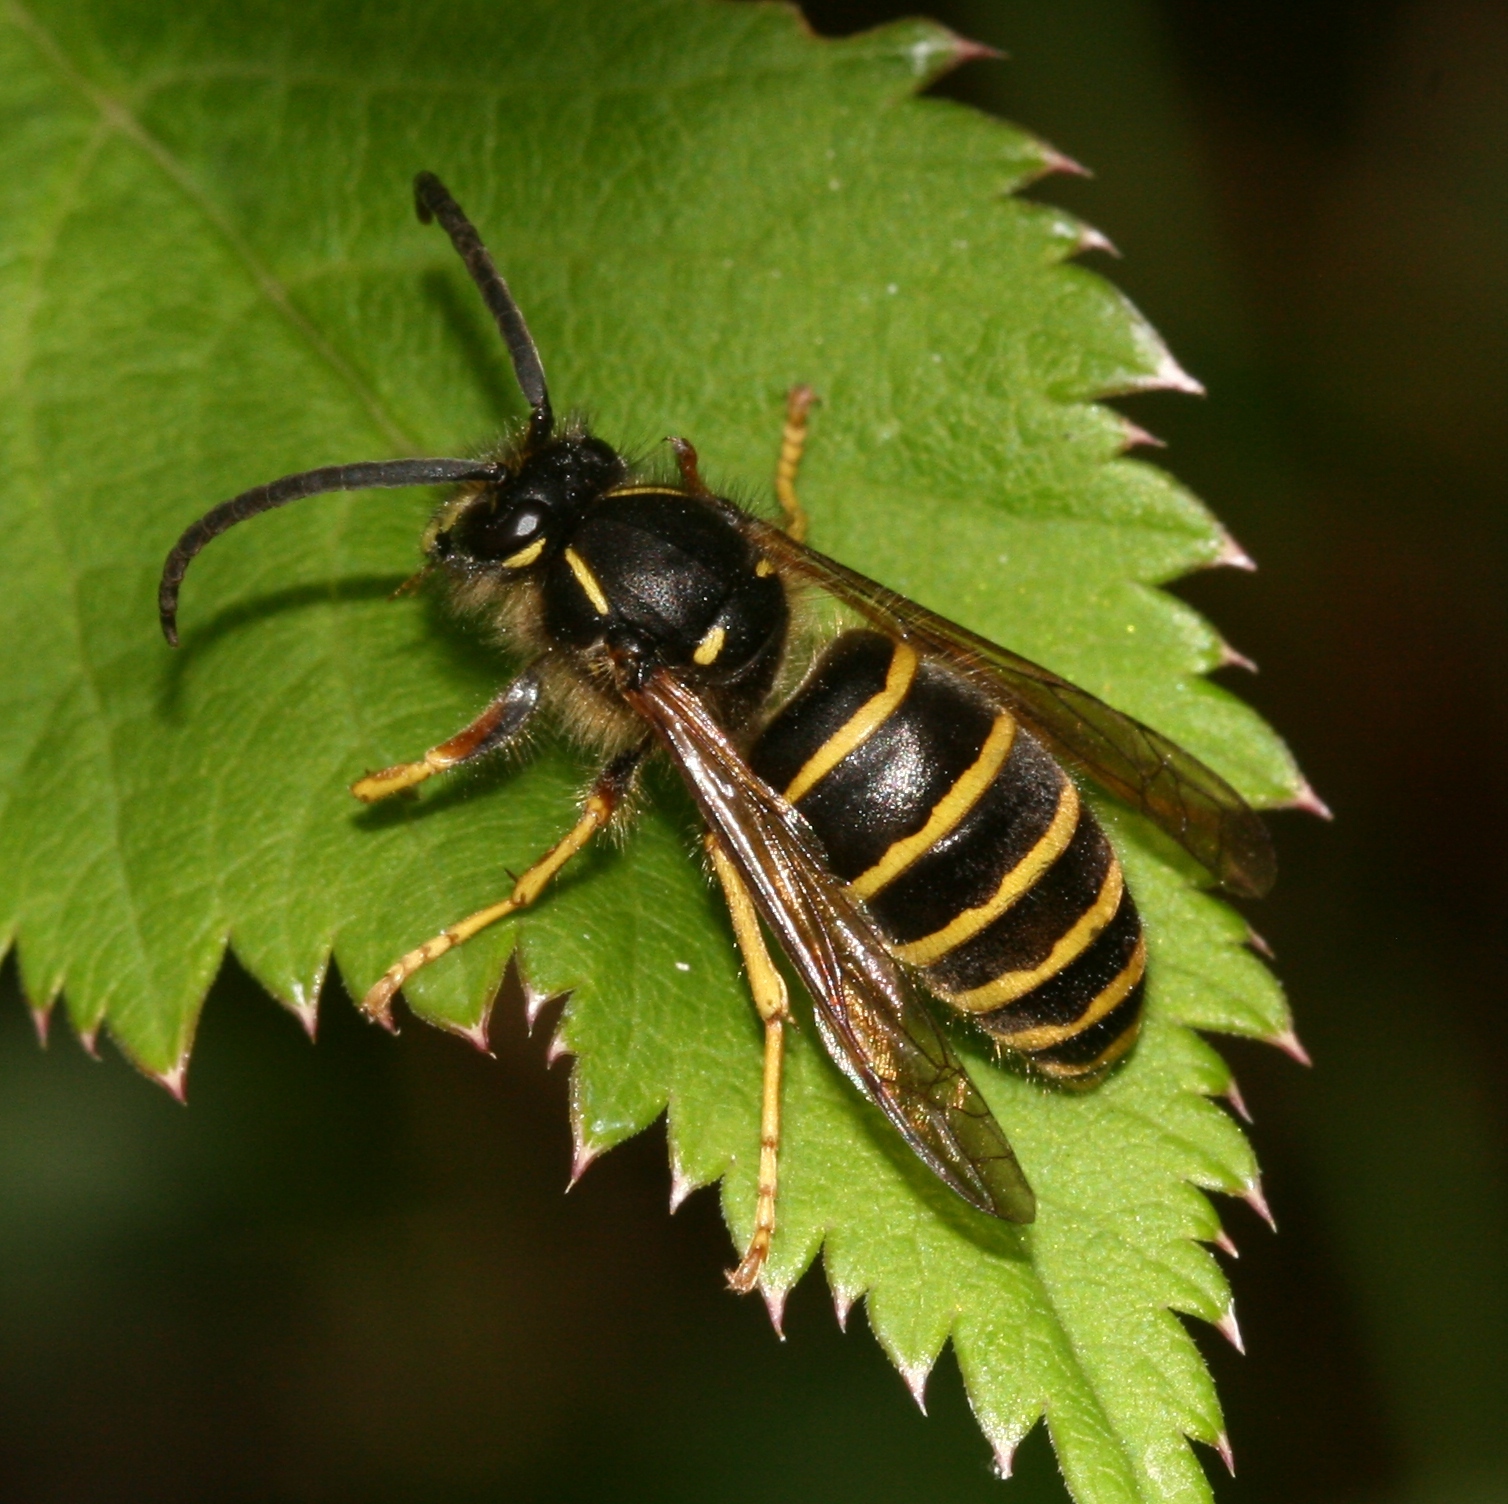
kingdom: Animalia
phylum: Arthropoda
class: Insecta
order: Hymenoptera
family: Vespidae
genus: Dolichovespula
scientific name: Dolichovespula saxonica
